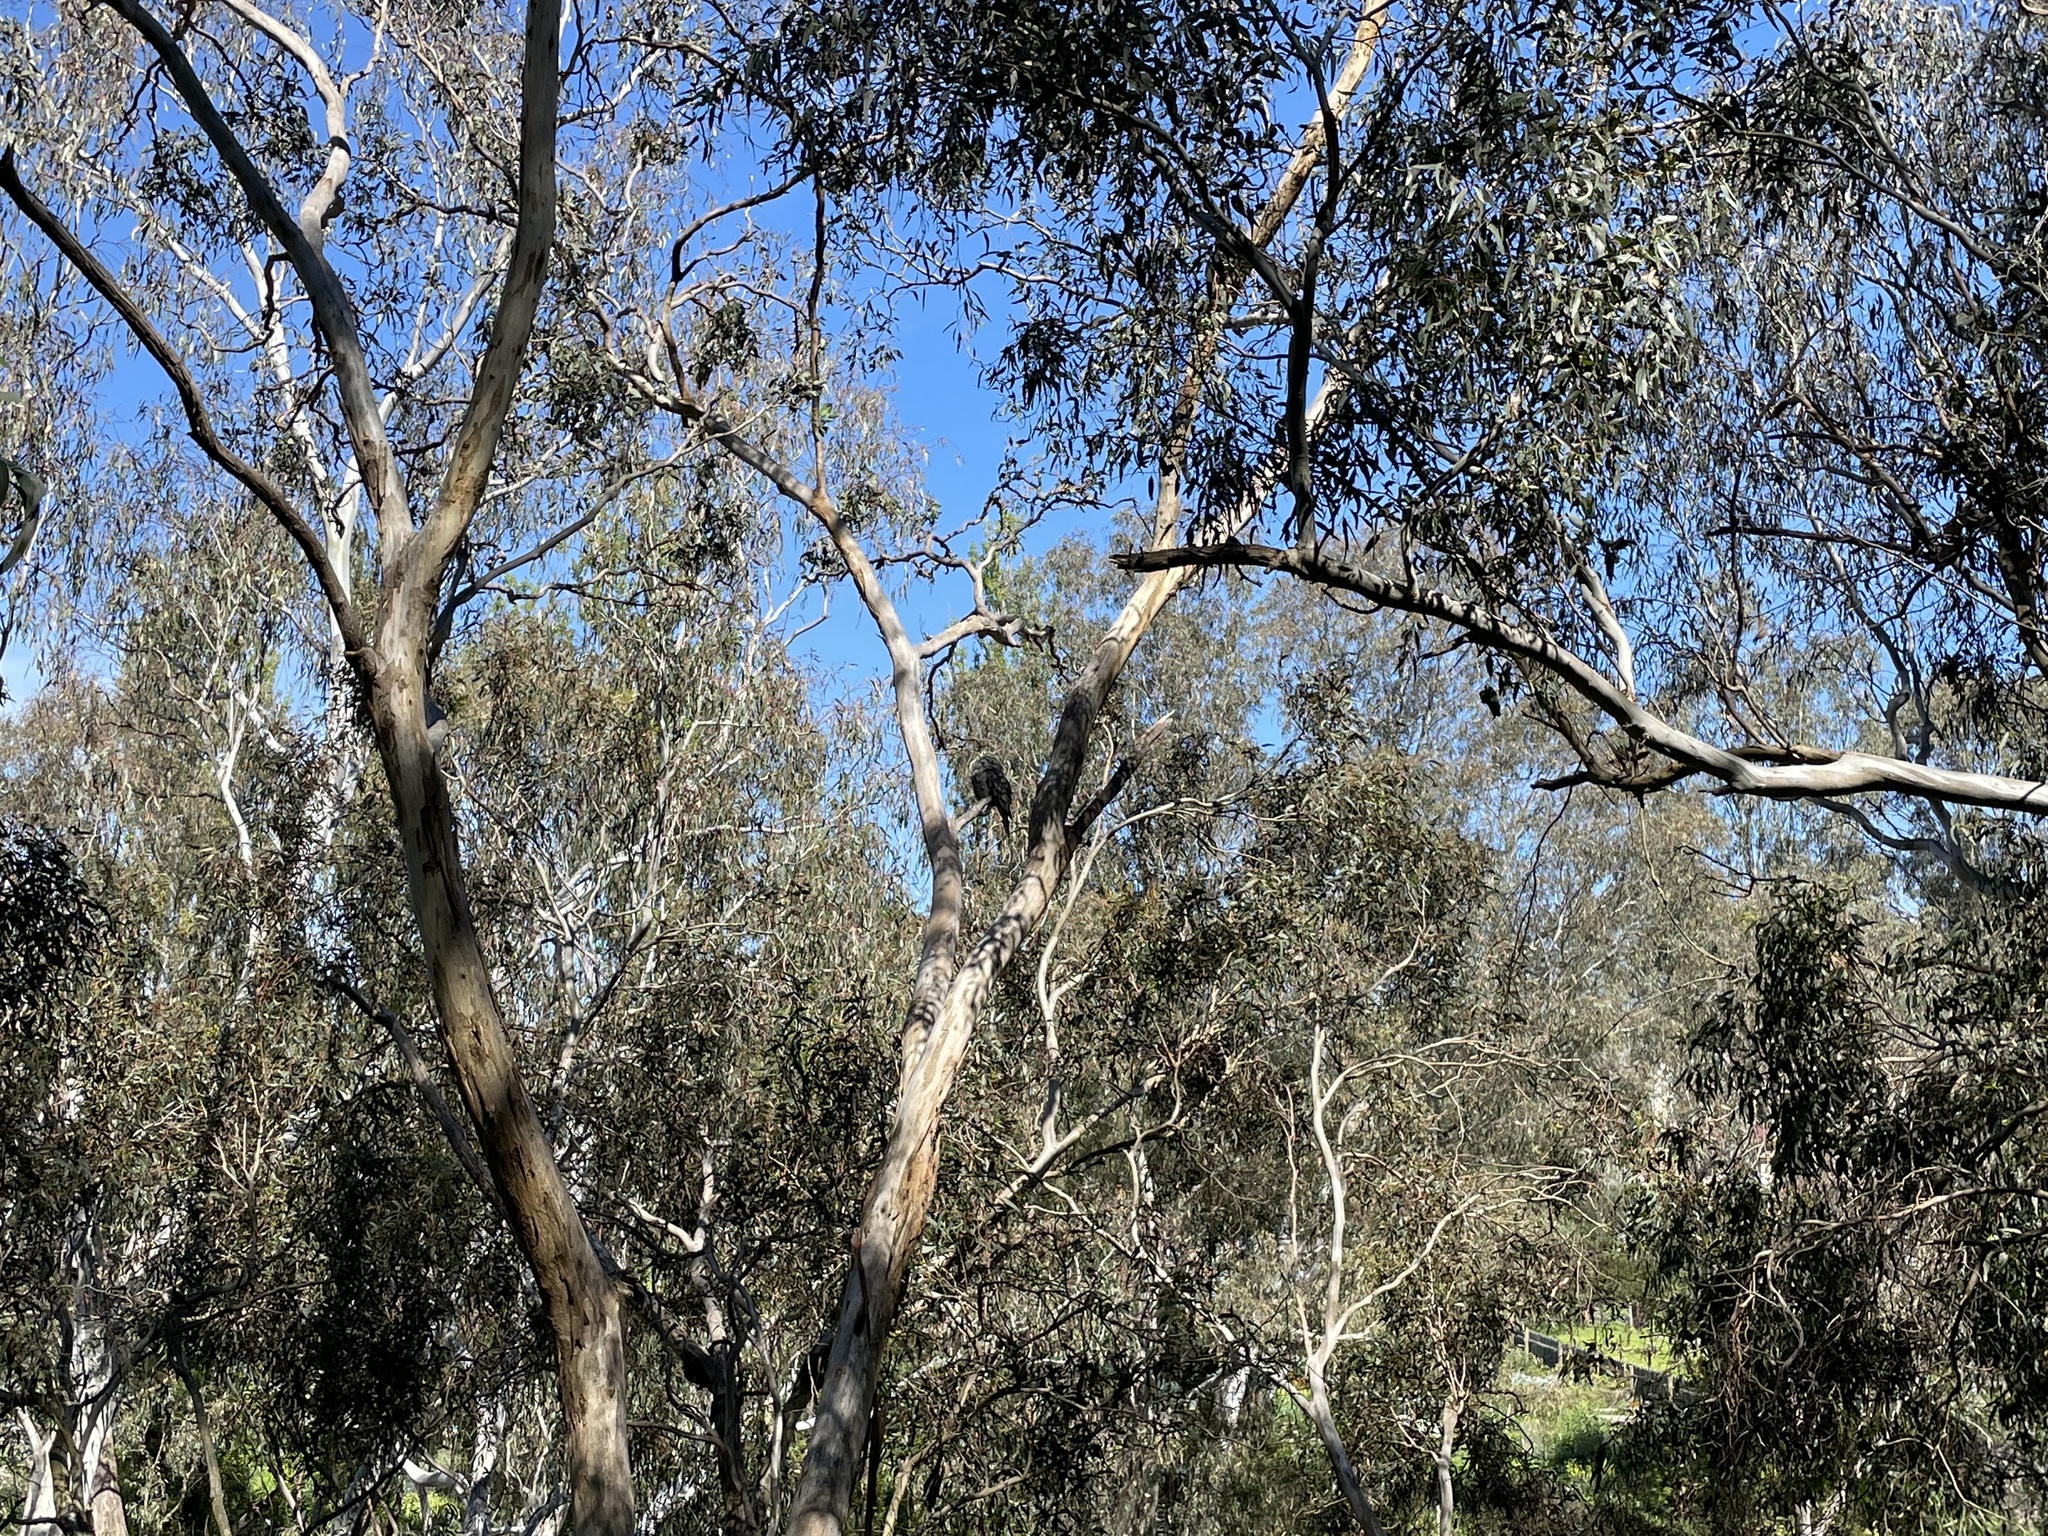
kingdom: Animalia
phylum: Chordata
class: Aves
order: Caprimulgiformes
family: Podargidae
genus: Podargus
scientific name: Podargus strigoides
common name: Tawny frogmouth
